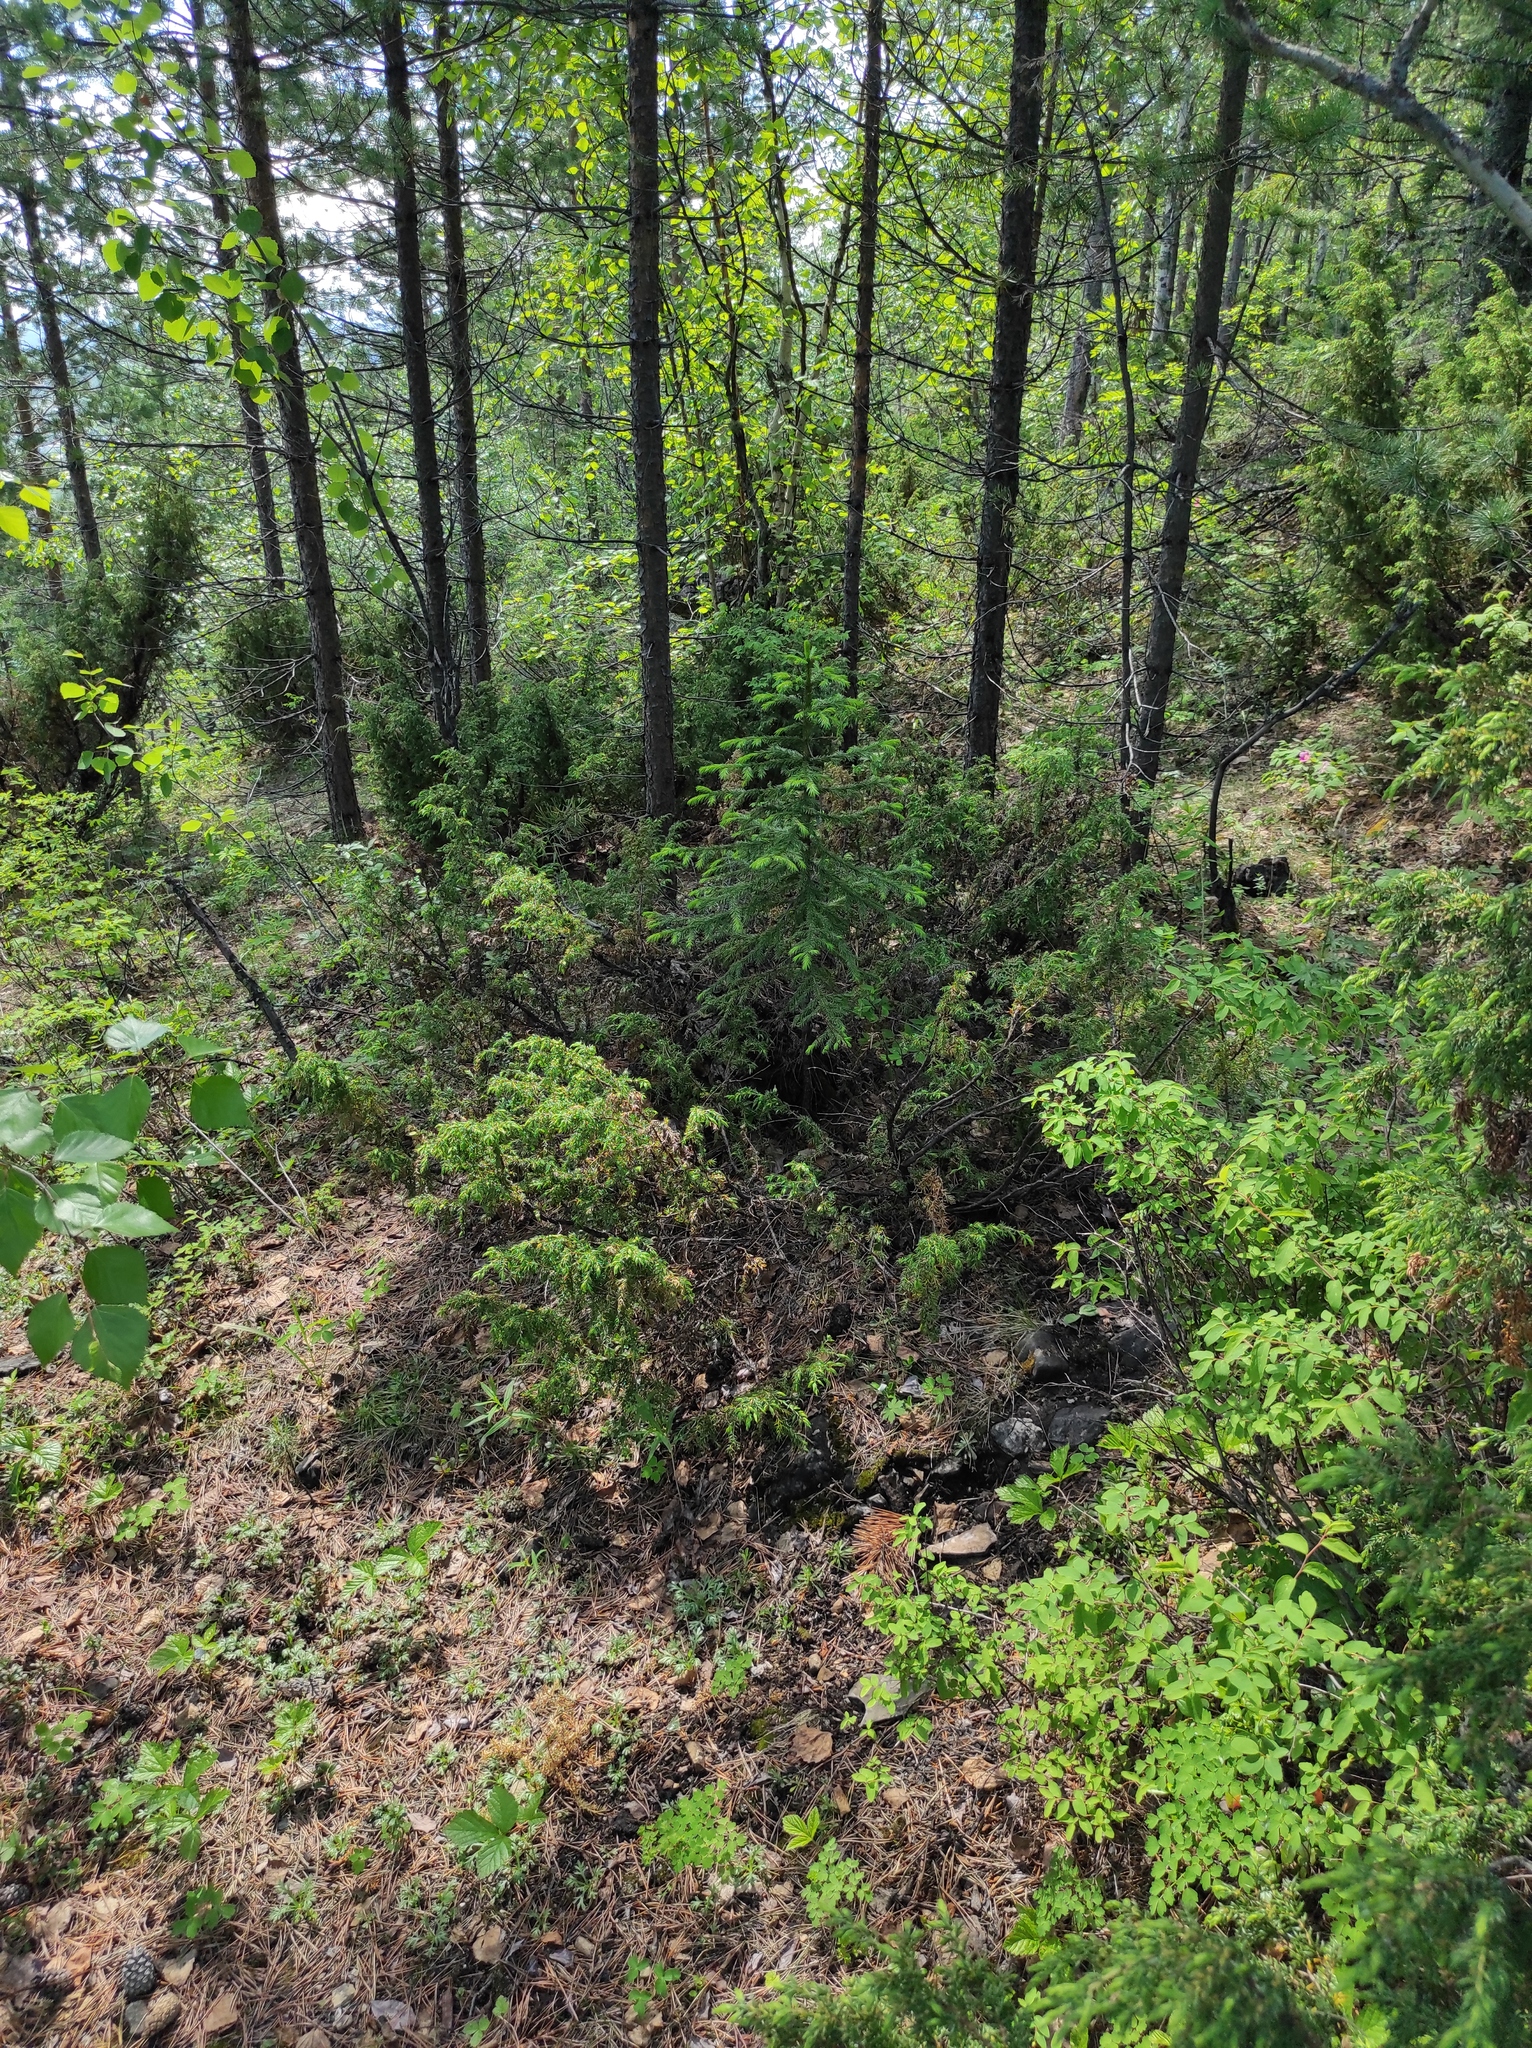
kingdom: Plantae
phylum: Tracheophyta
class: Magnoliopsida
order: Rosales
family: Rosaceae
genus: Rubus
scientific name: Rubus saxatilis
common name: Stone bramble
